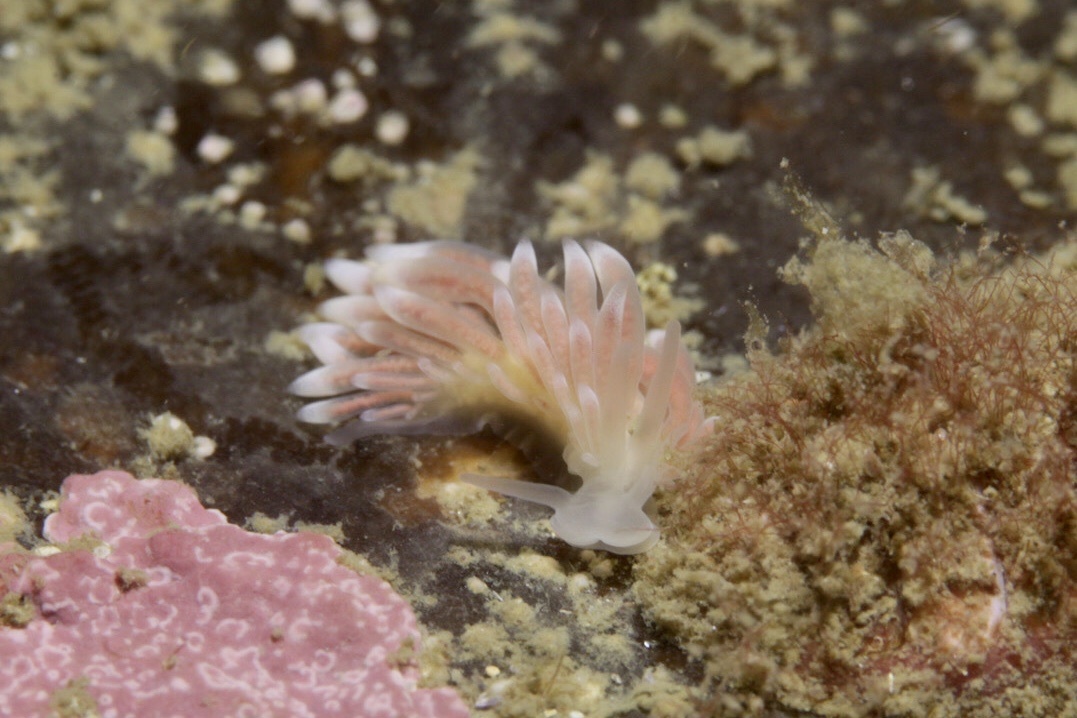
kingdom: Animalia
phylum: Mollusca
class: Gastropoda
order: Nudibranchia
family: Trinchesiidae
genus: Catriona
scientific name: Catriona aurantia
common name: Corange-tip cuthona
